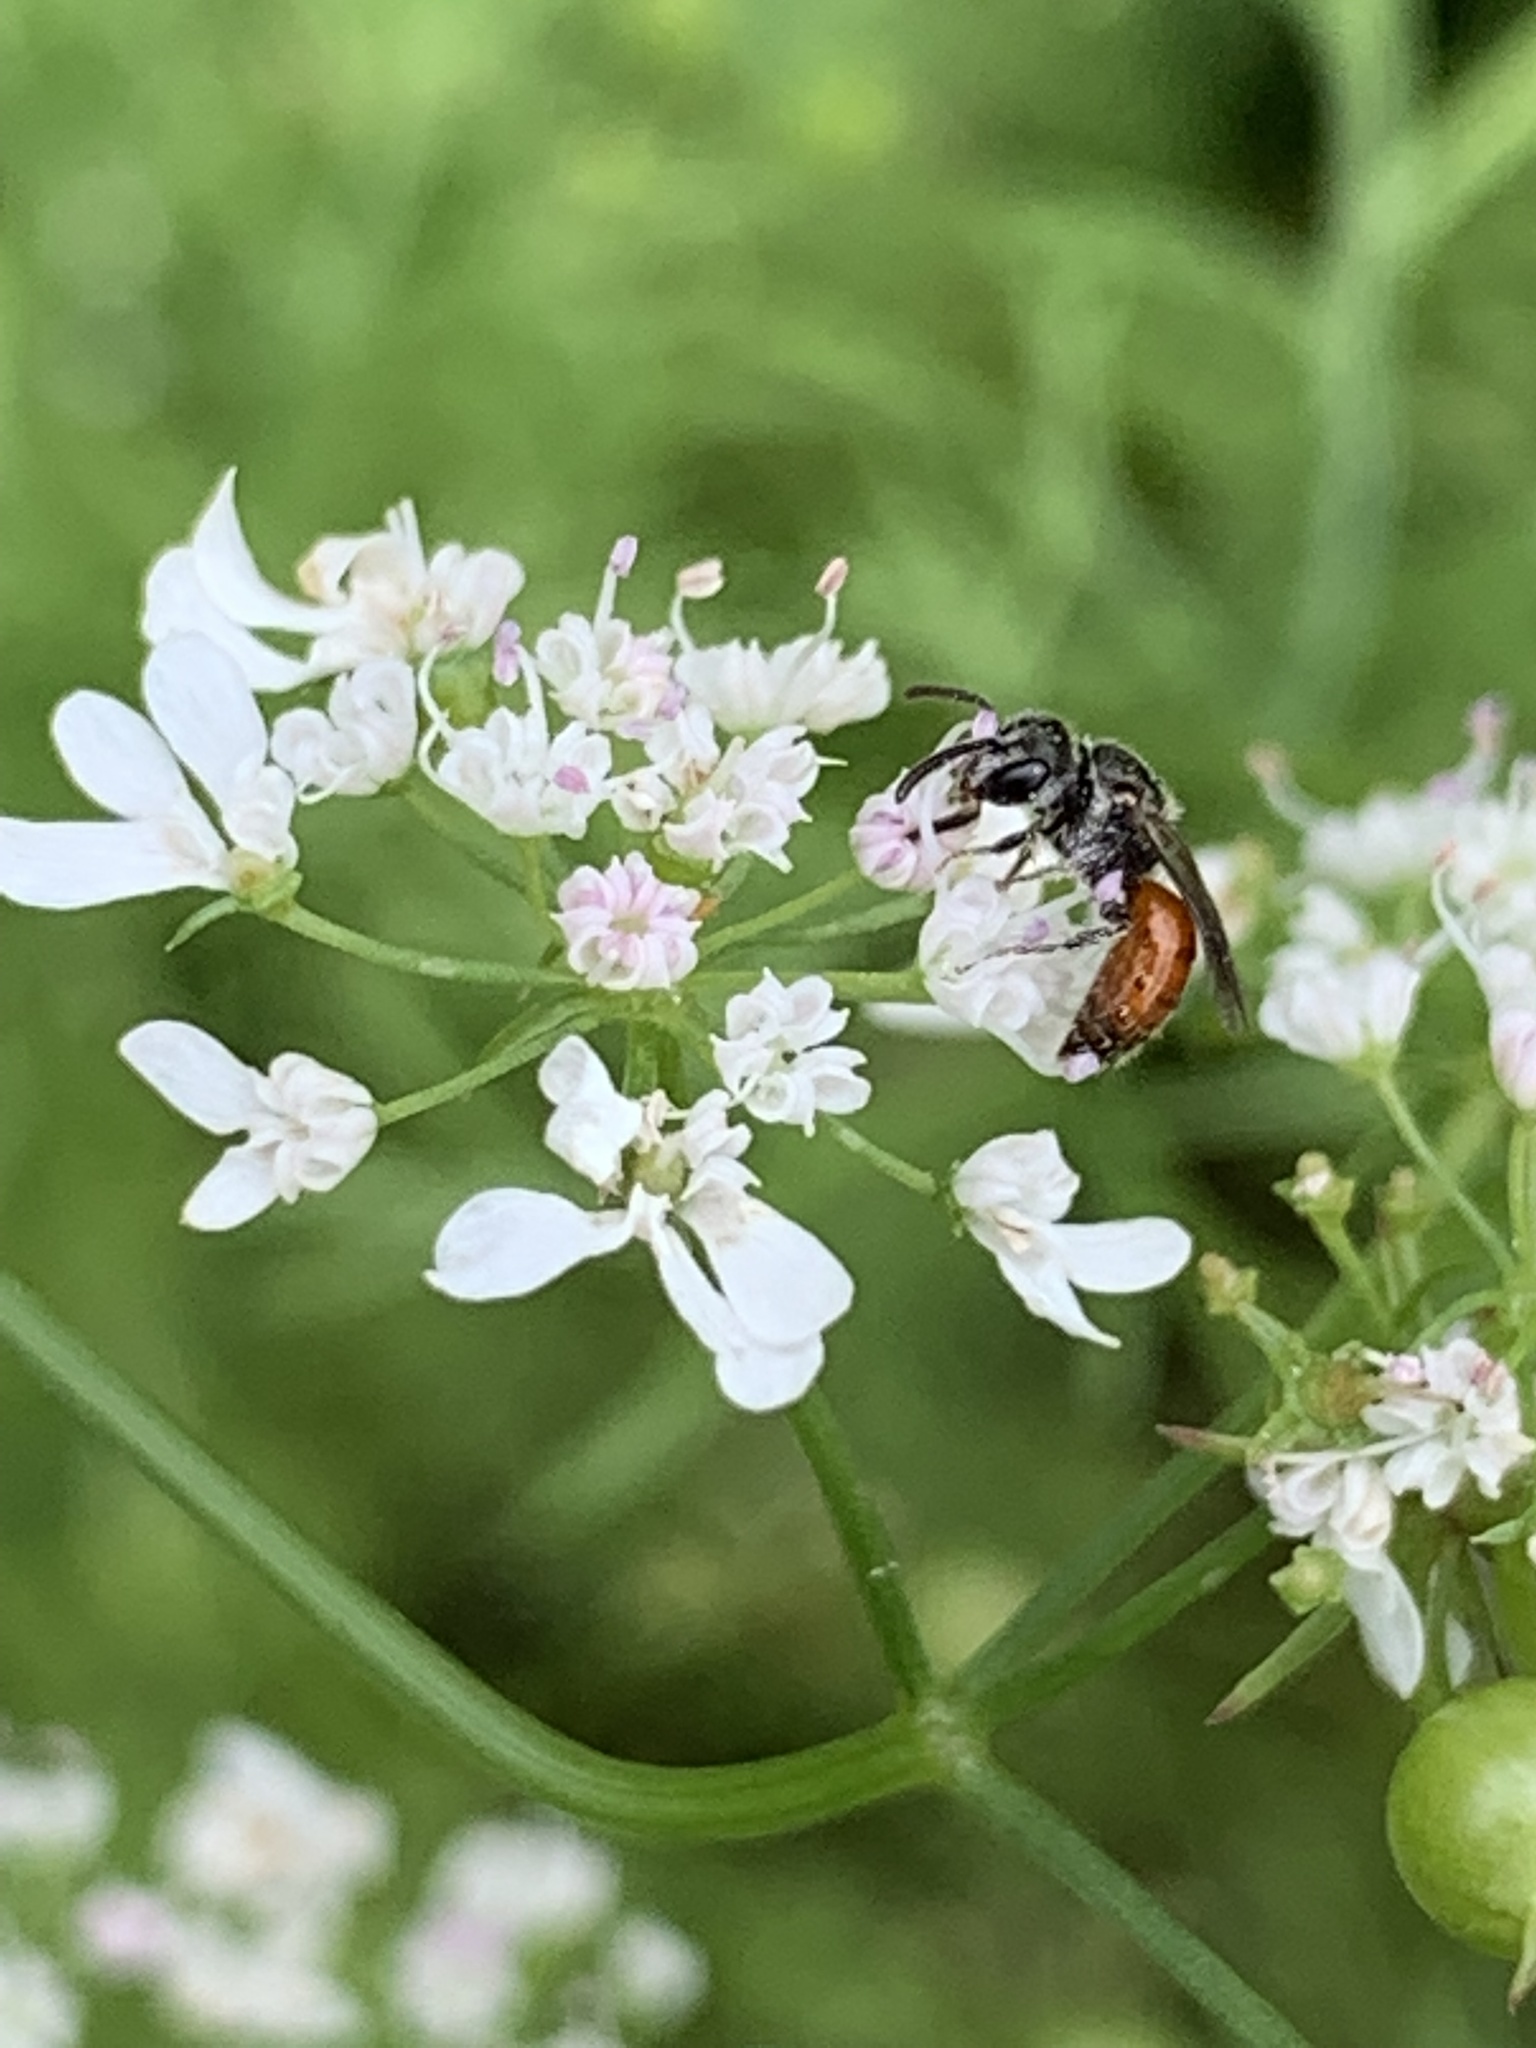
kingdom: Animalia
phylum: Arthropoda
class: Insecta
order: Hymenoptera
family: Halictidae
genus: Sphecodes
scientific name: Sphecodes
